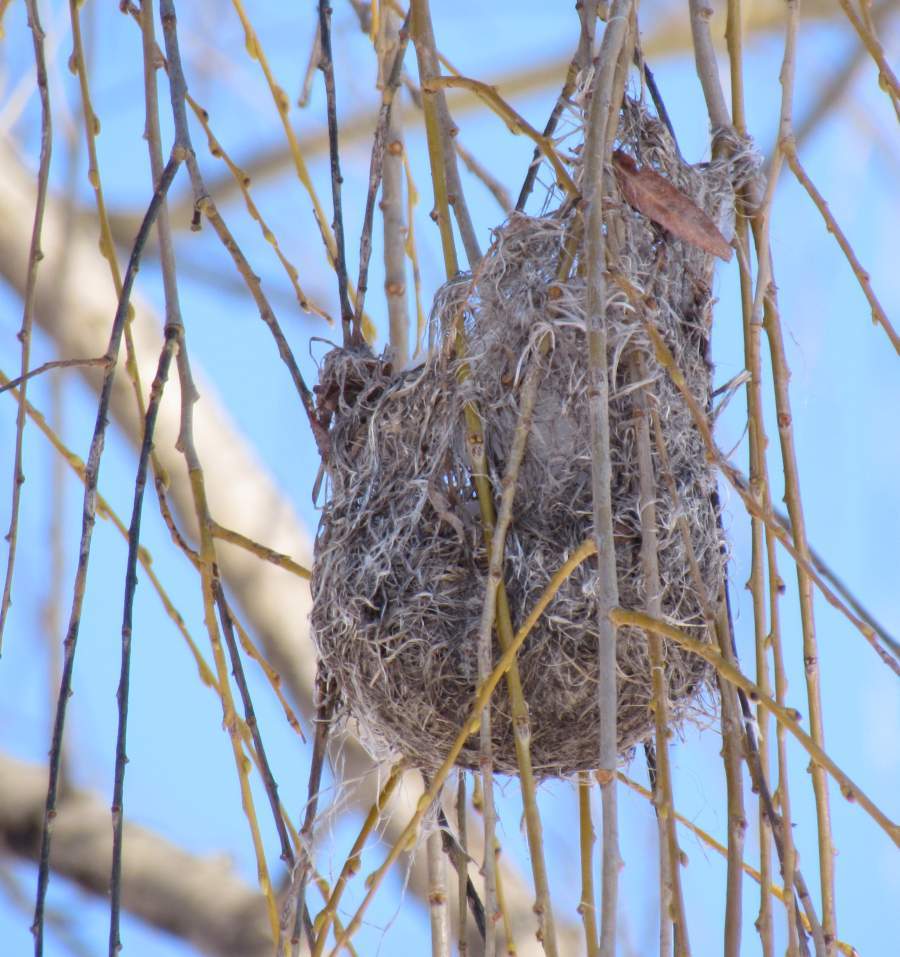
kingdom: Animalia
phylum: Chordata
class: Aves
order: Passeriformes
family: Icteridae
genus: Icterus
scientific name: Icterus galbula
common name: Baltimore oriole
